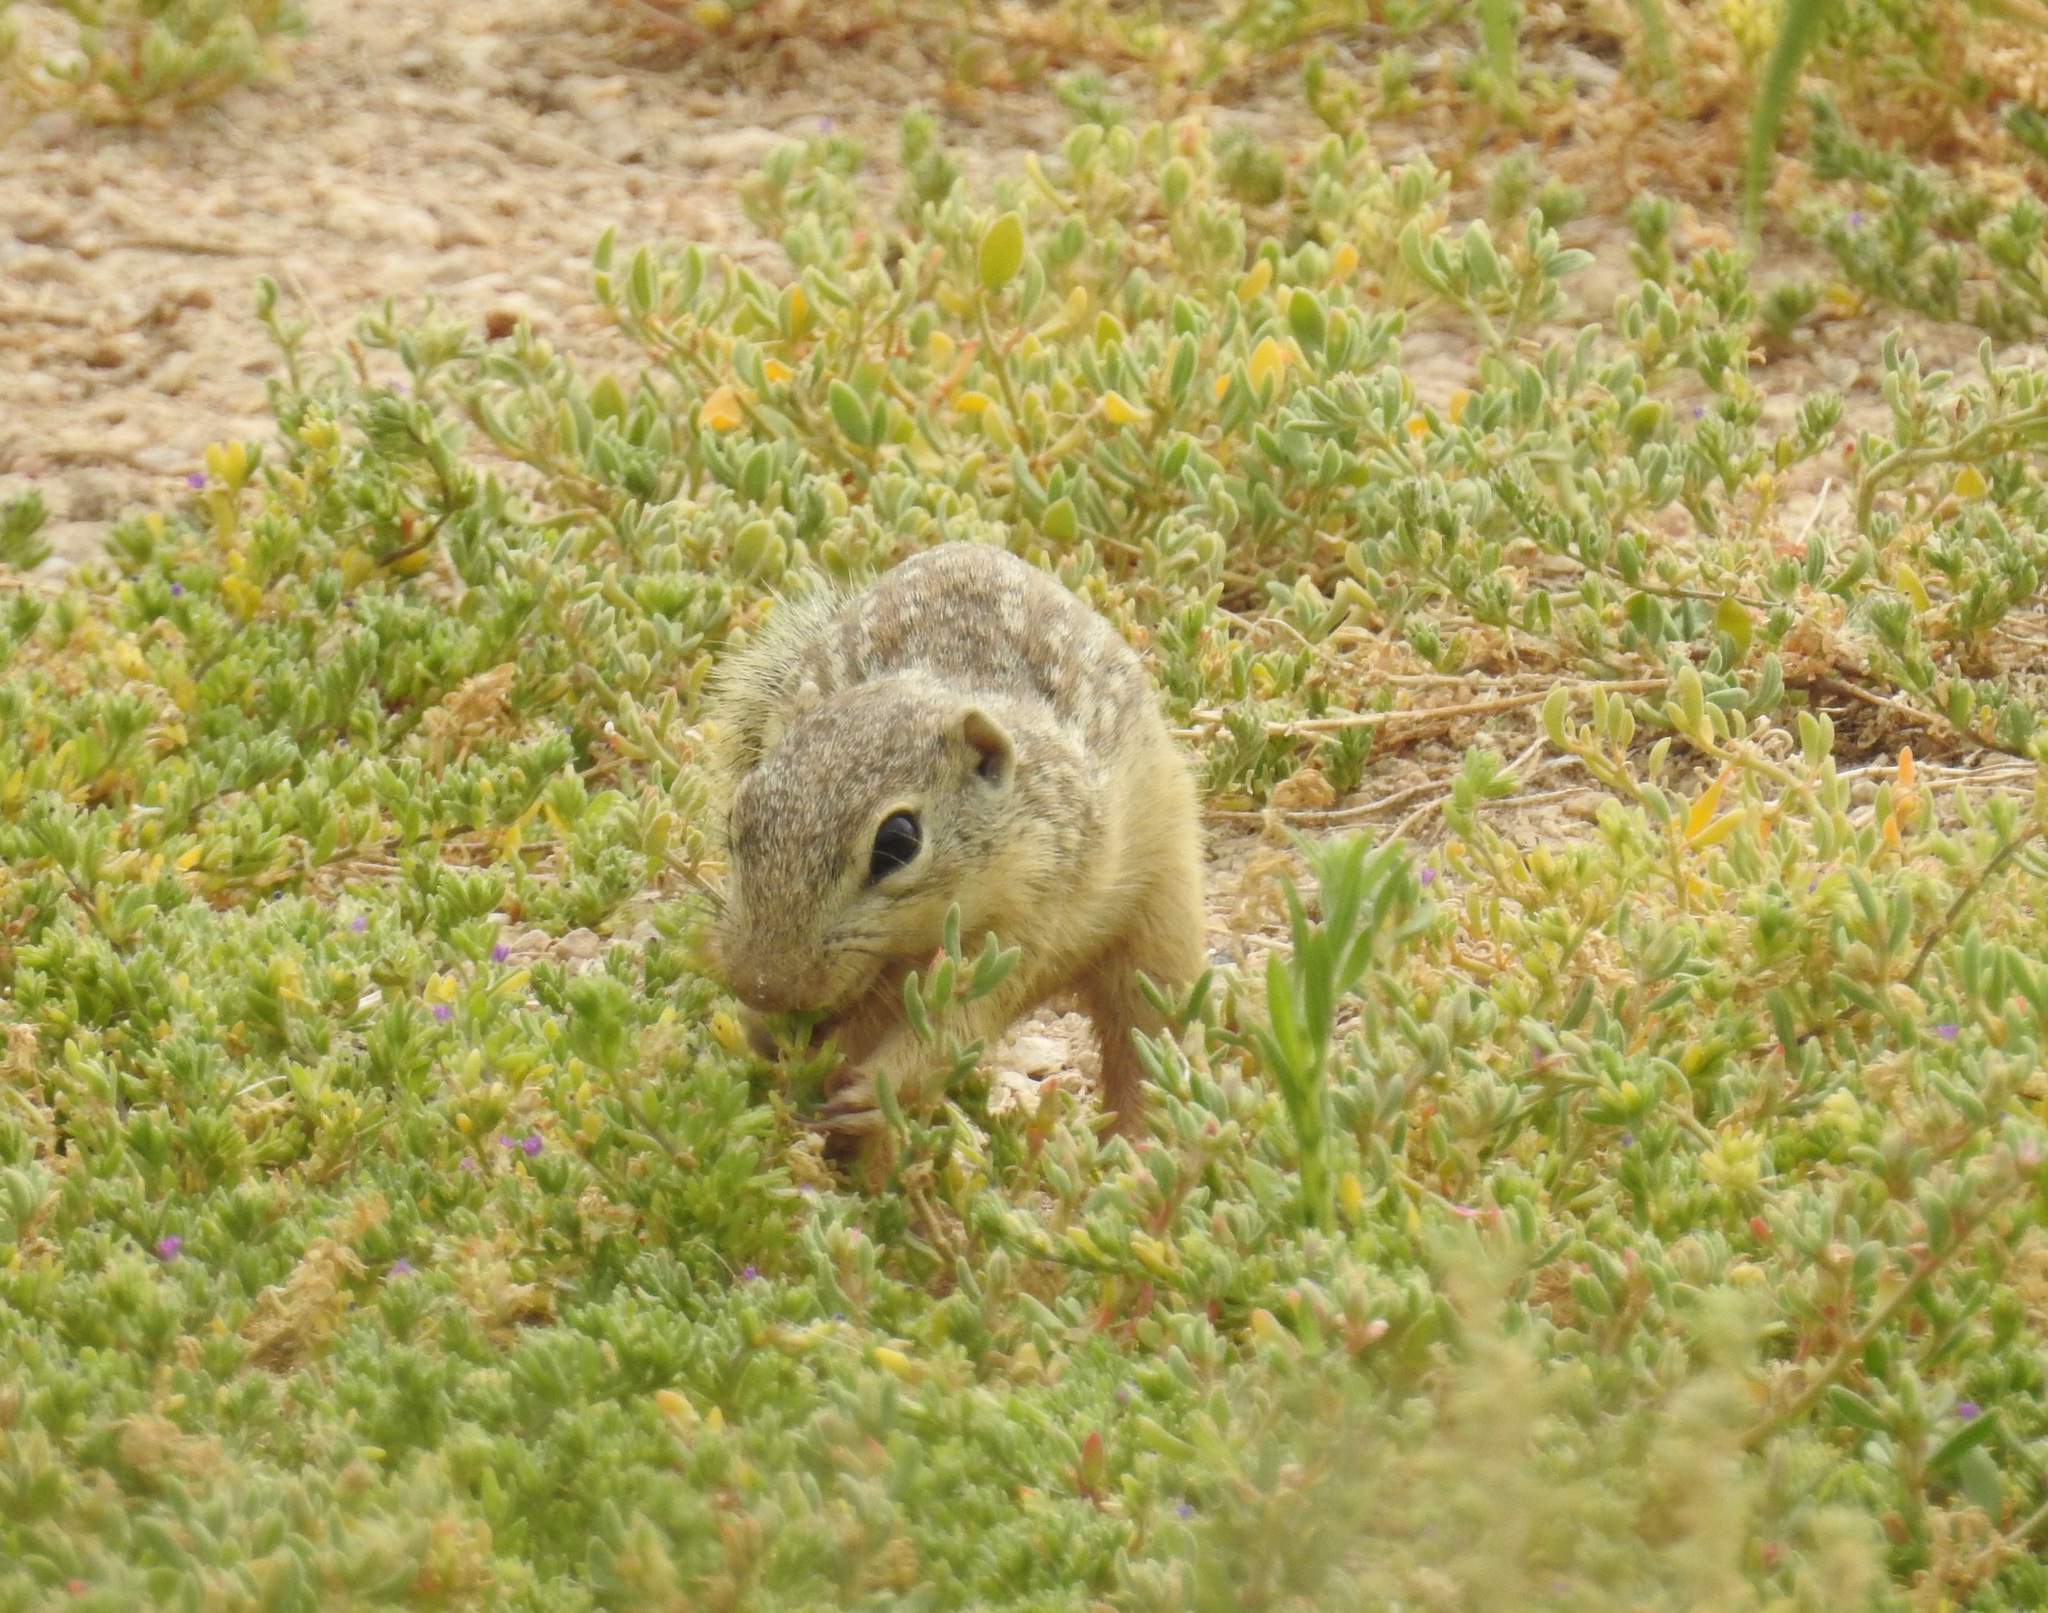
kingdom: Animalia
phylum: Chordata
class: Mammalia
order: Rodentia
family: Sciuridae
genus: Ictidomys
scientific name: Ictidomys parvidens
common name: Rio grande ground squirrel
